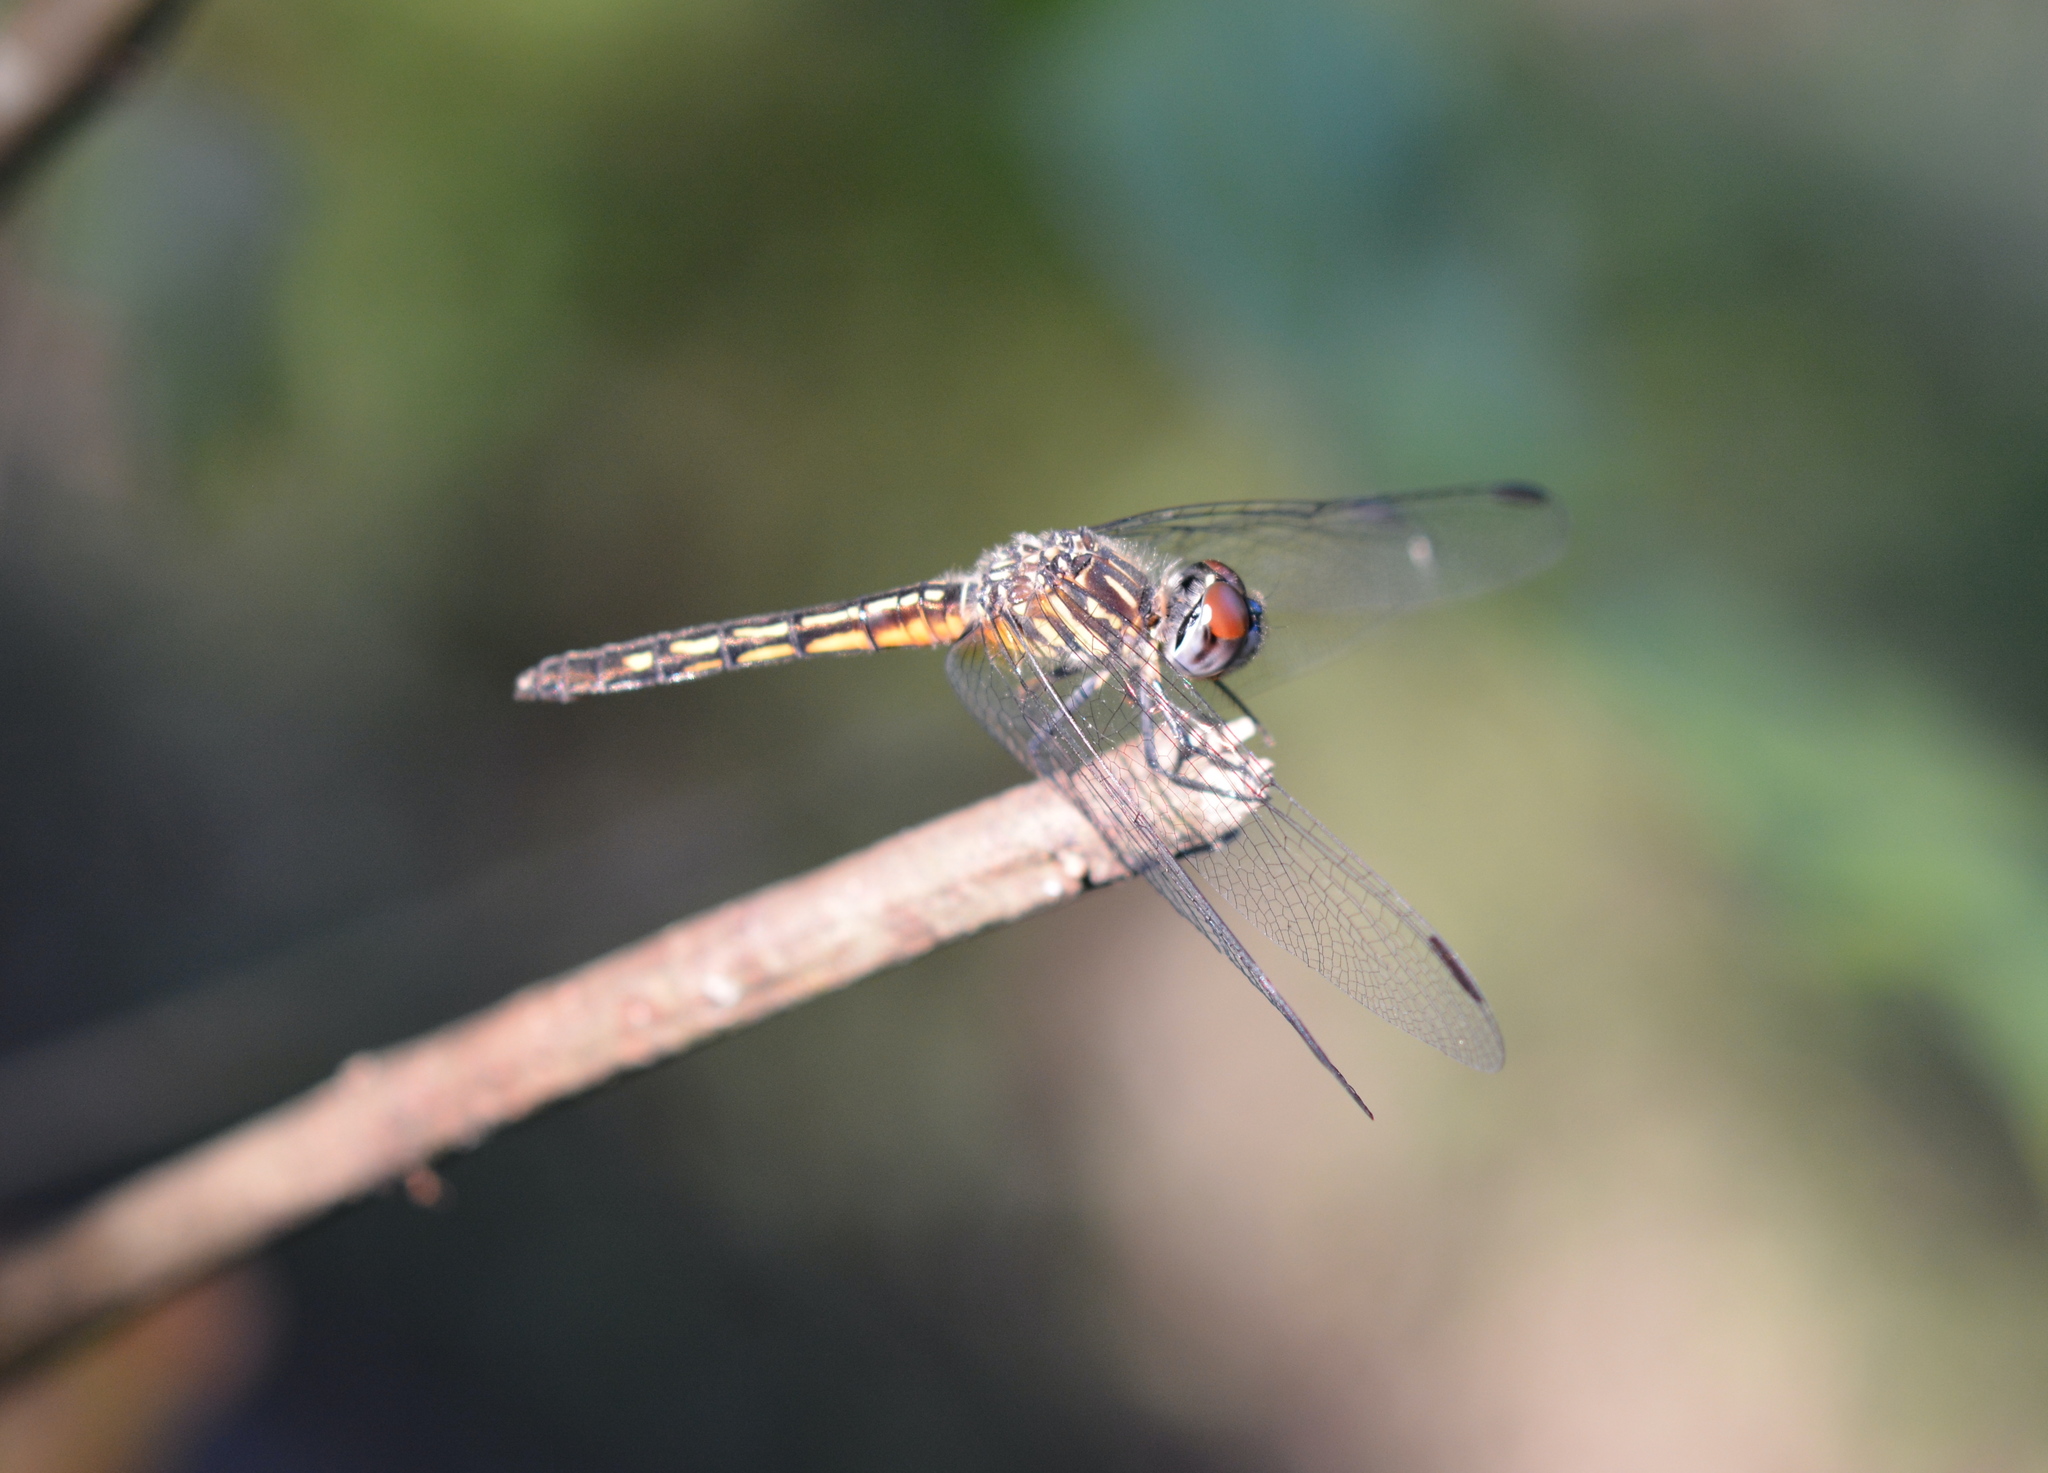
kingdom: Animalia
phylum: Arthropoda
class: Insecta
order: Odonata
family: Libellulidae
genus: Pachydiplax
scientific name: Pachydiplax longipennis
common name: Blue dasher
